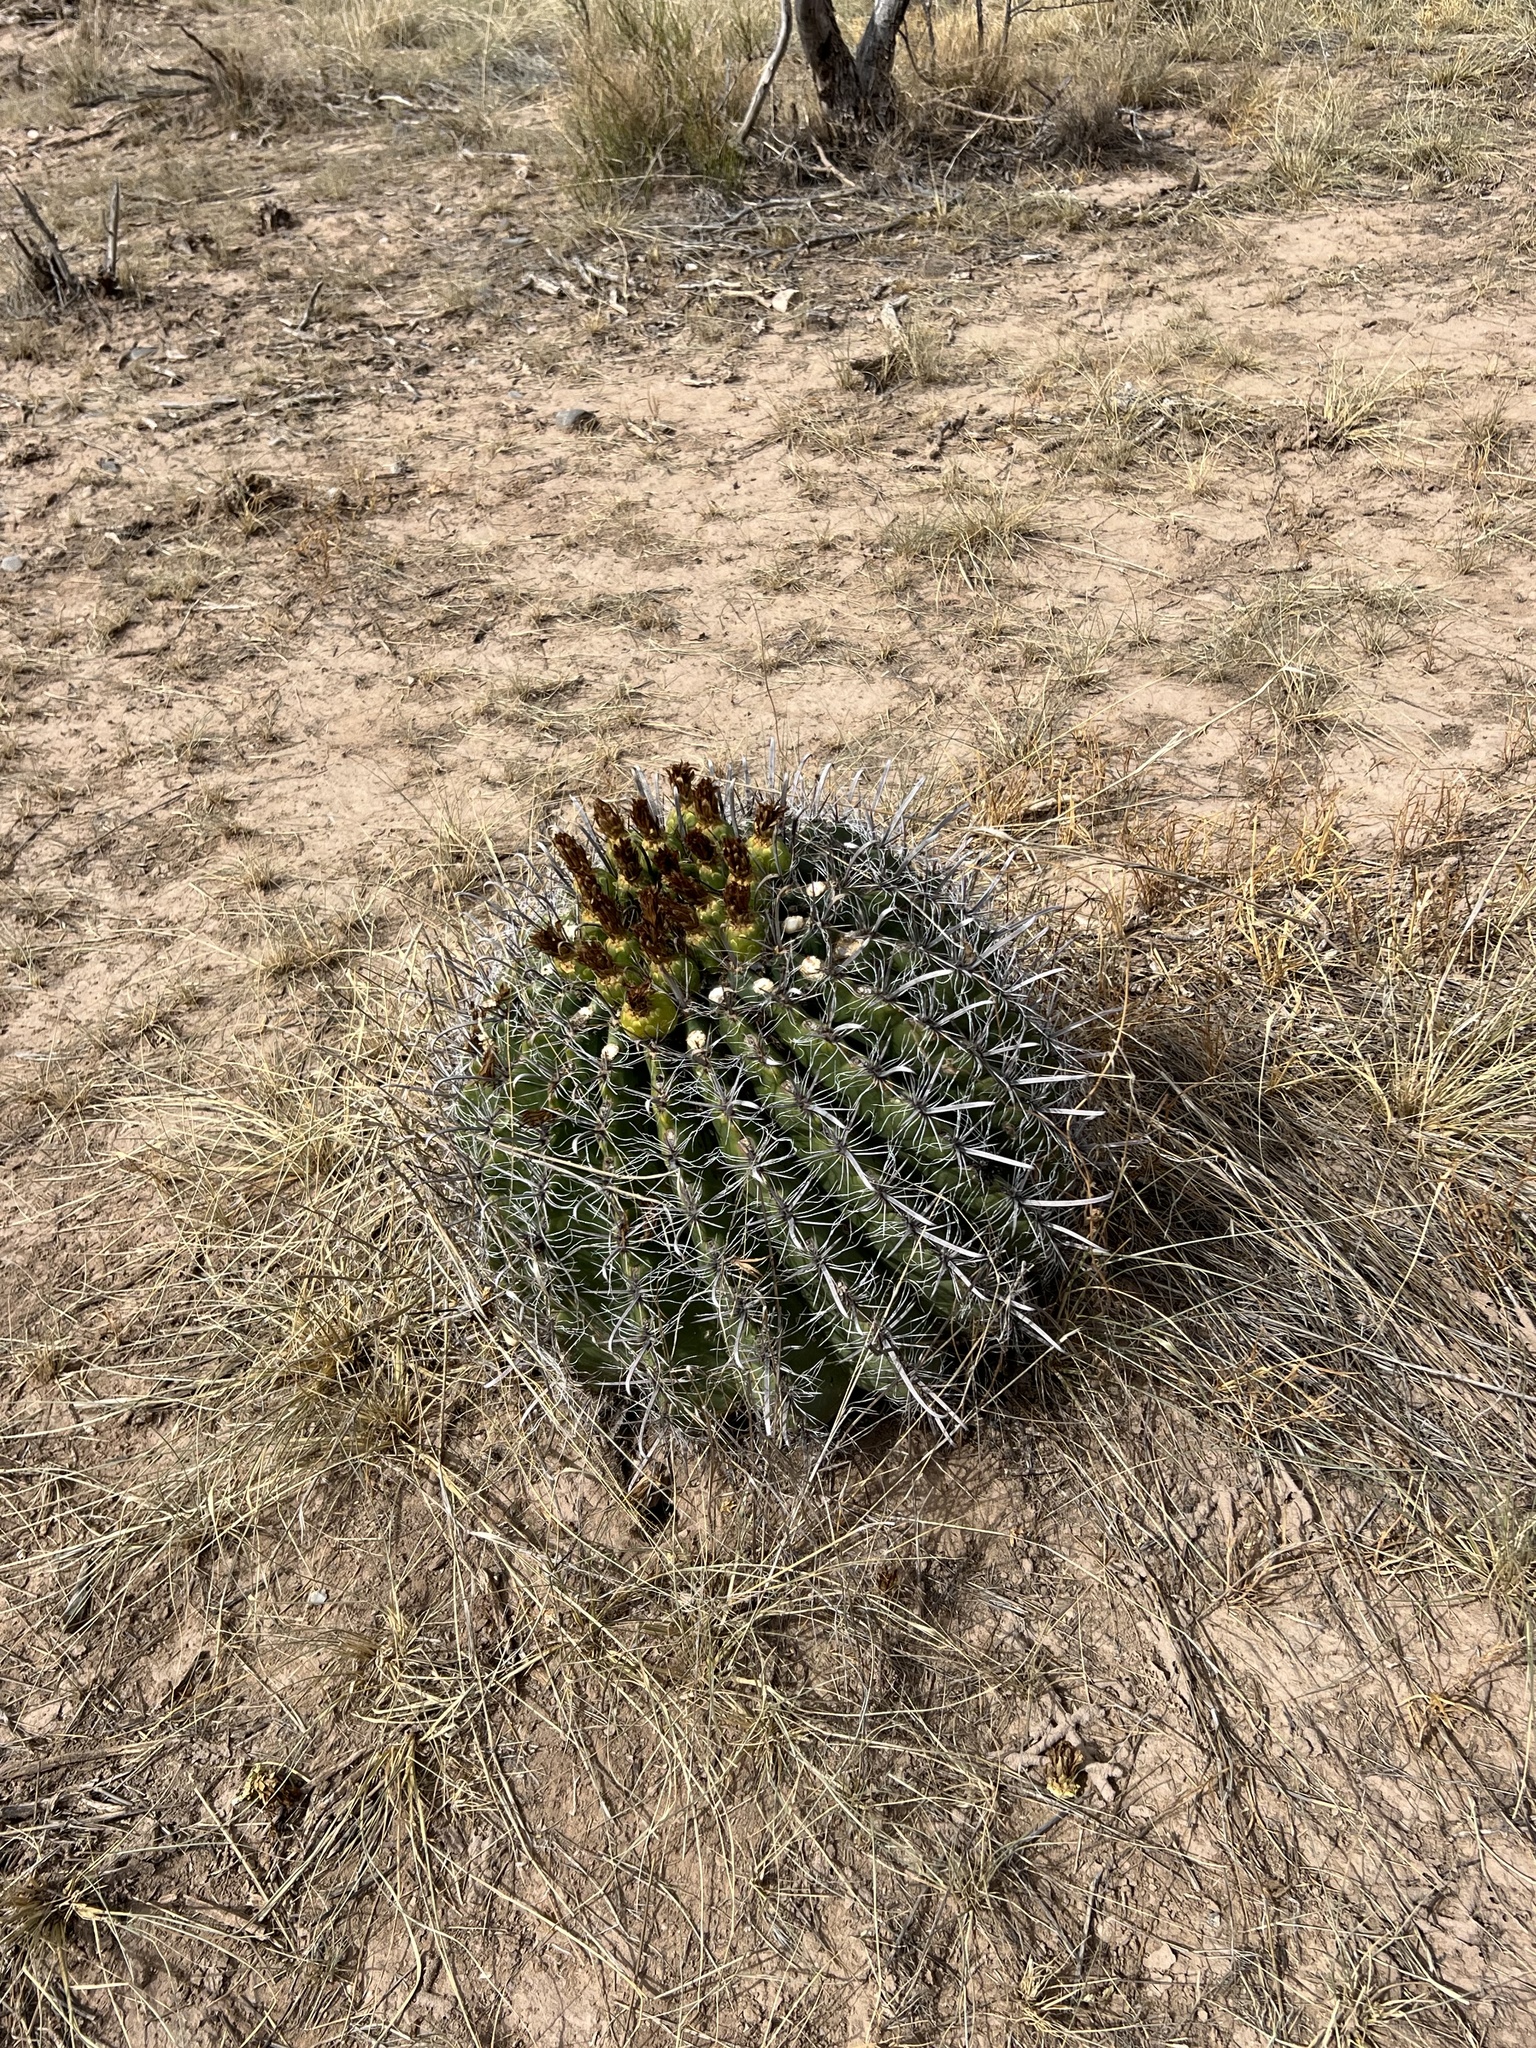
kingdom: Plantae
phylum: Tracheophyta
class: Magnoliopsida
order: Caryophyllales
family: Cactaceae
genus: Ferocactus
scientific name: Ferocactus wislizeni
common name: Candy barrel cactus
